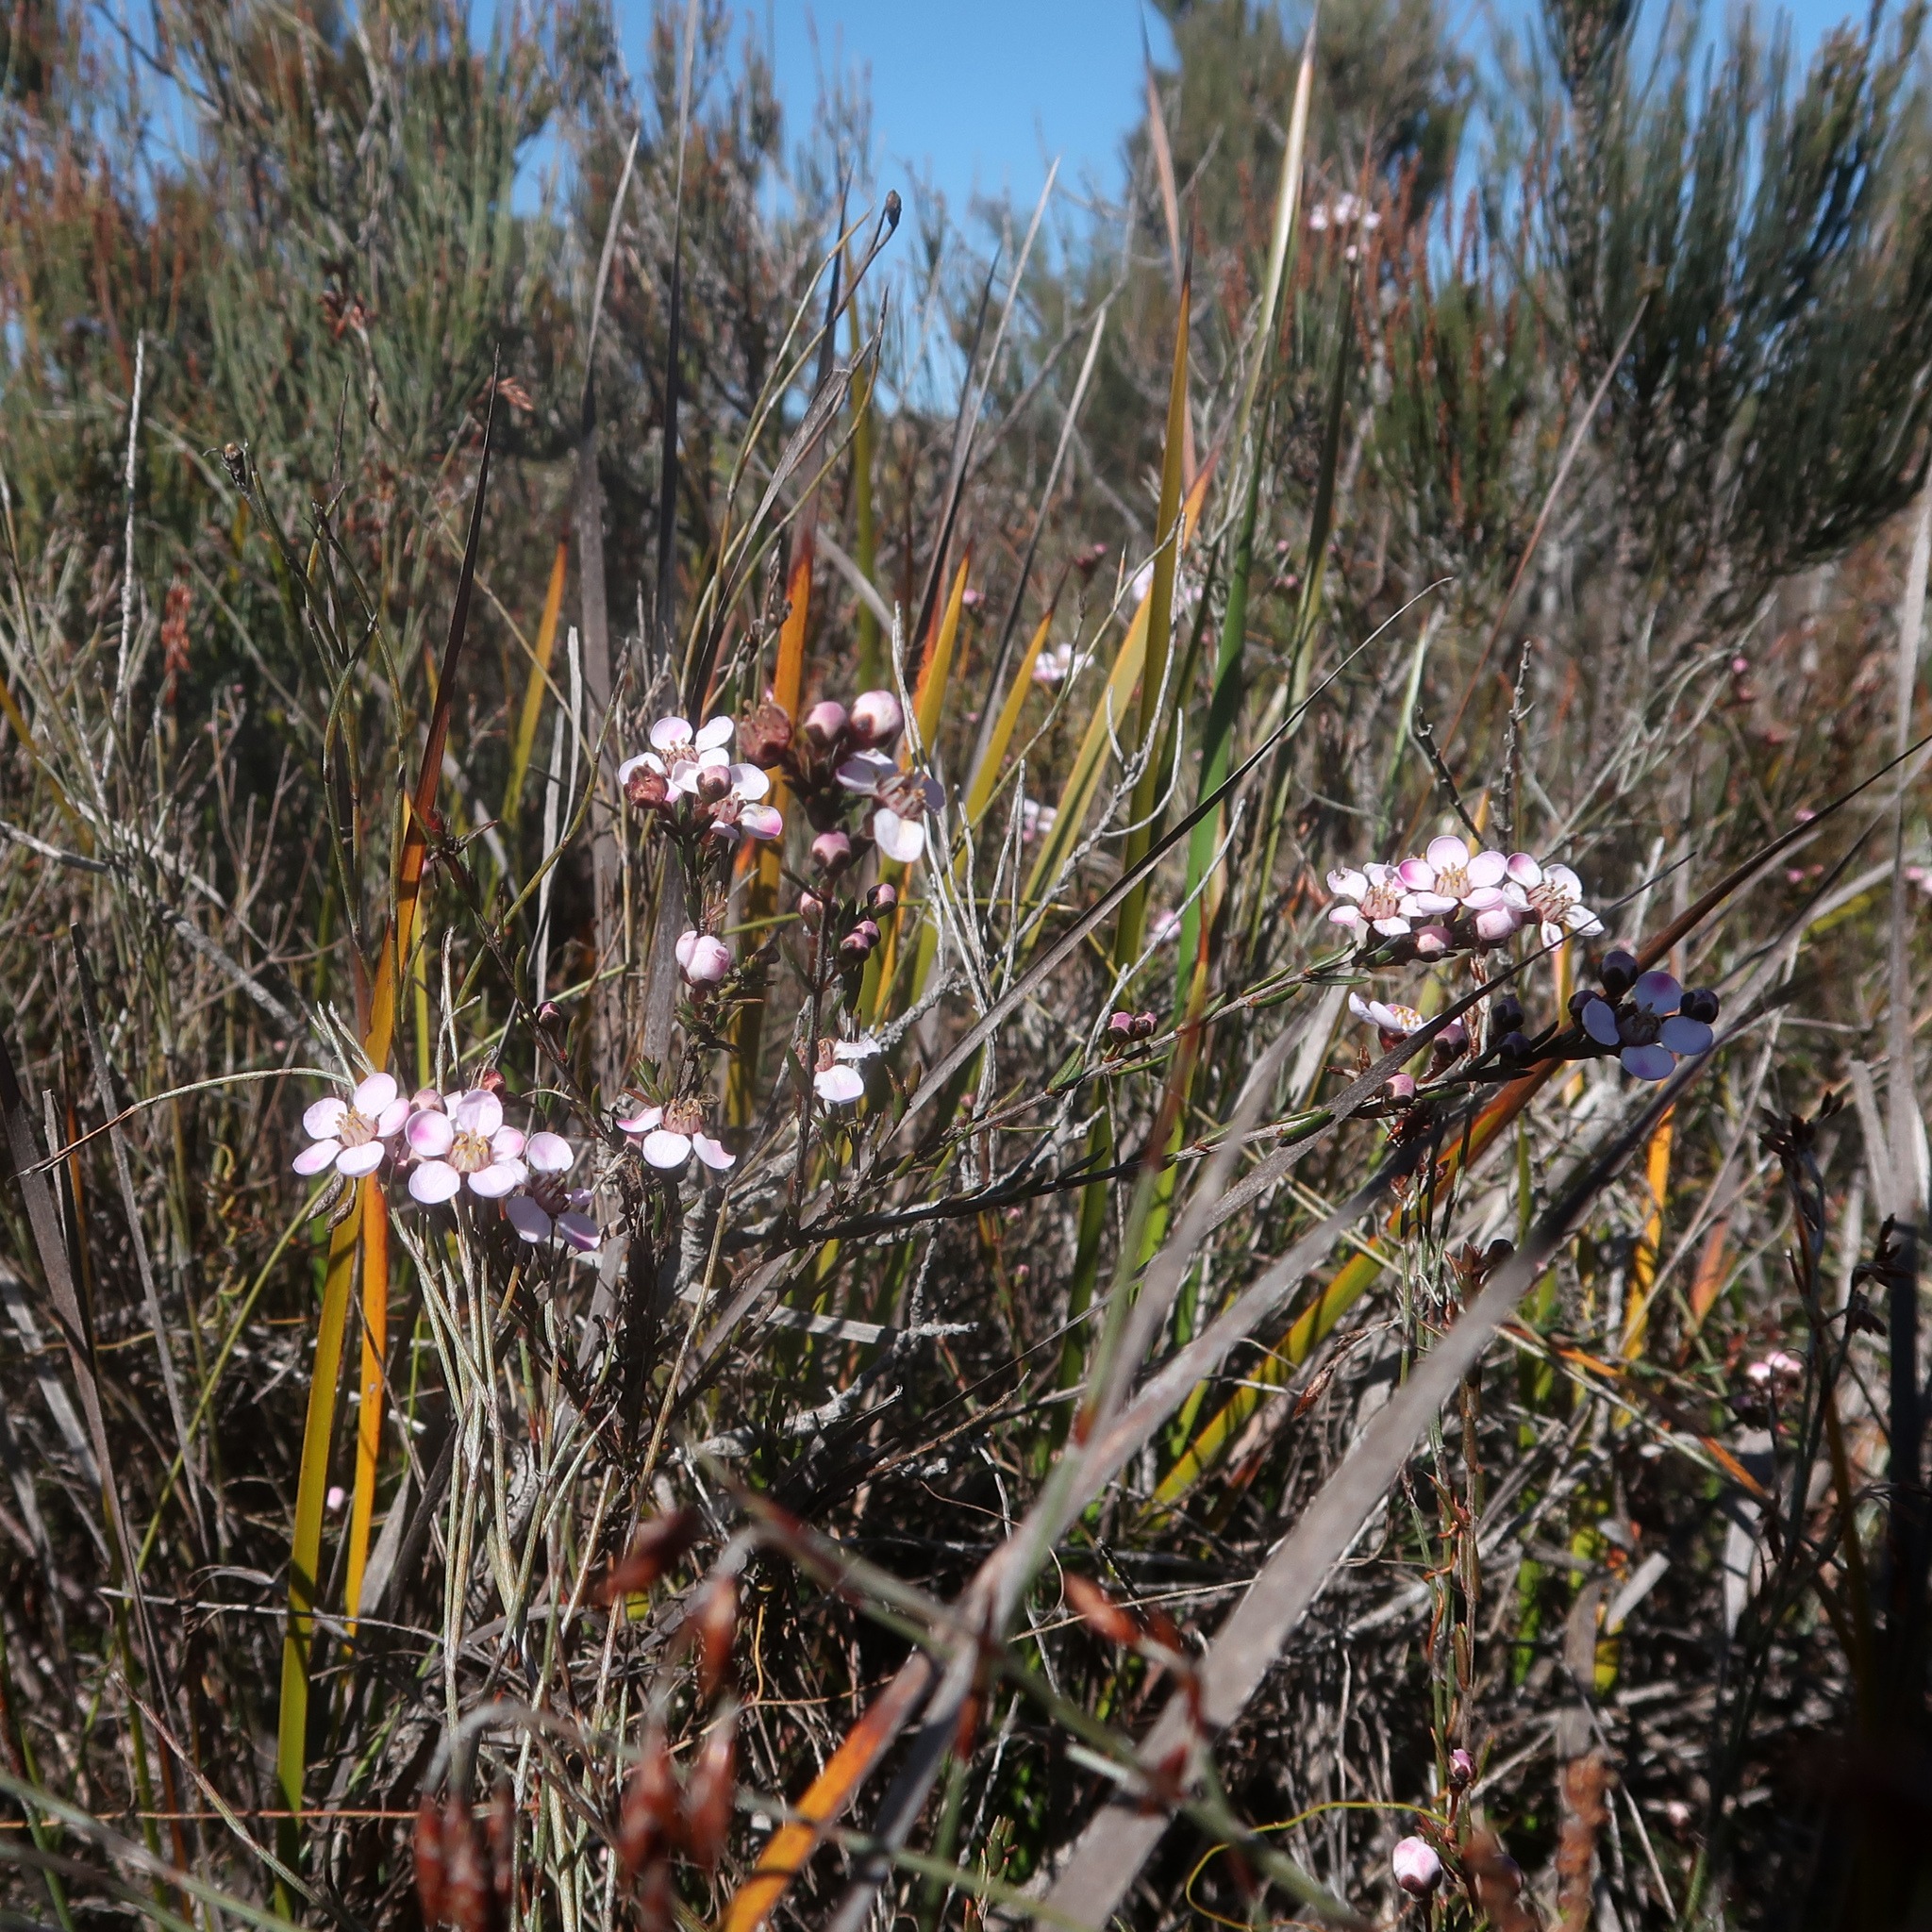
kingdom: Plantae
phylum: Tracheophyta
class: Magnoliopsida
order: Myrtales
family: Myrtaceae
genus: Euryomyrtus
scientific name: Euryomyrtus ramosissima
